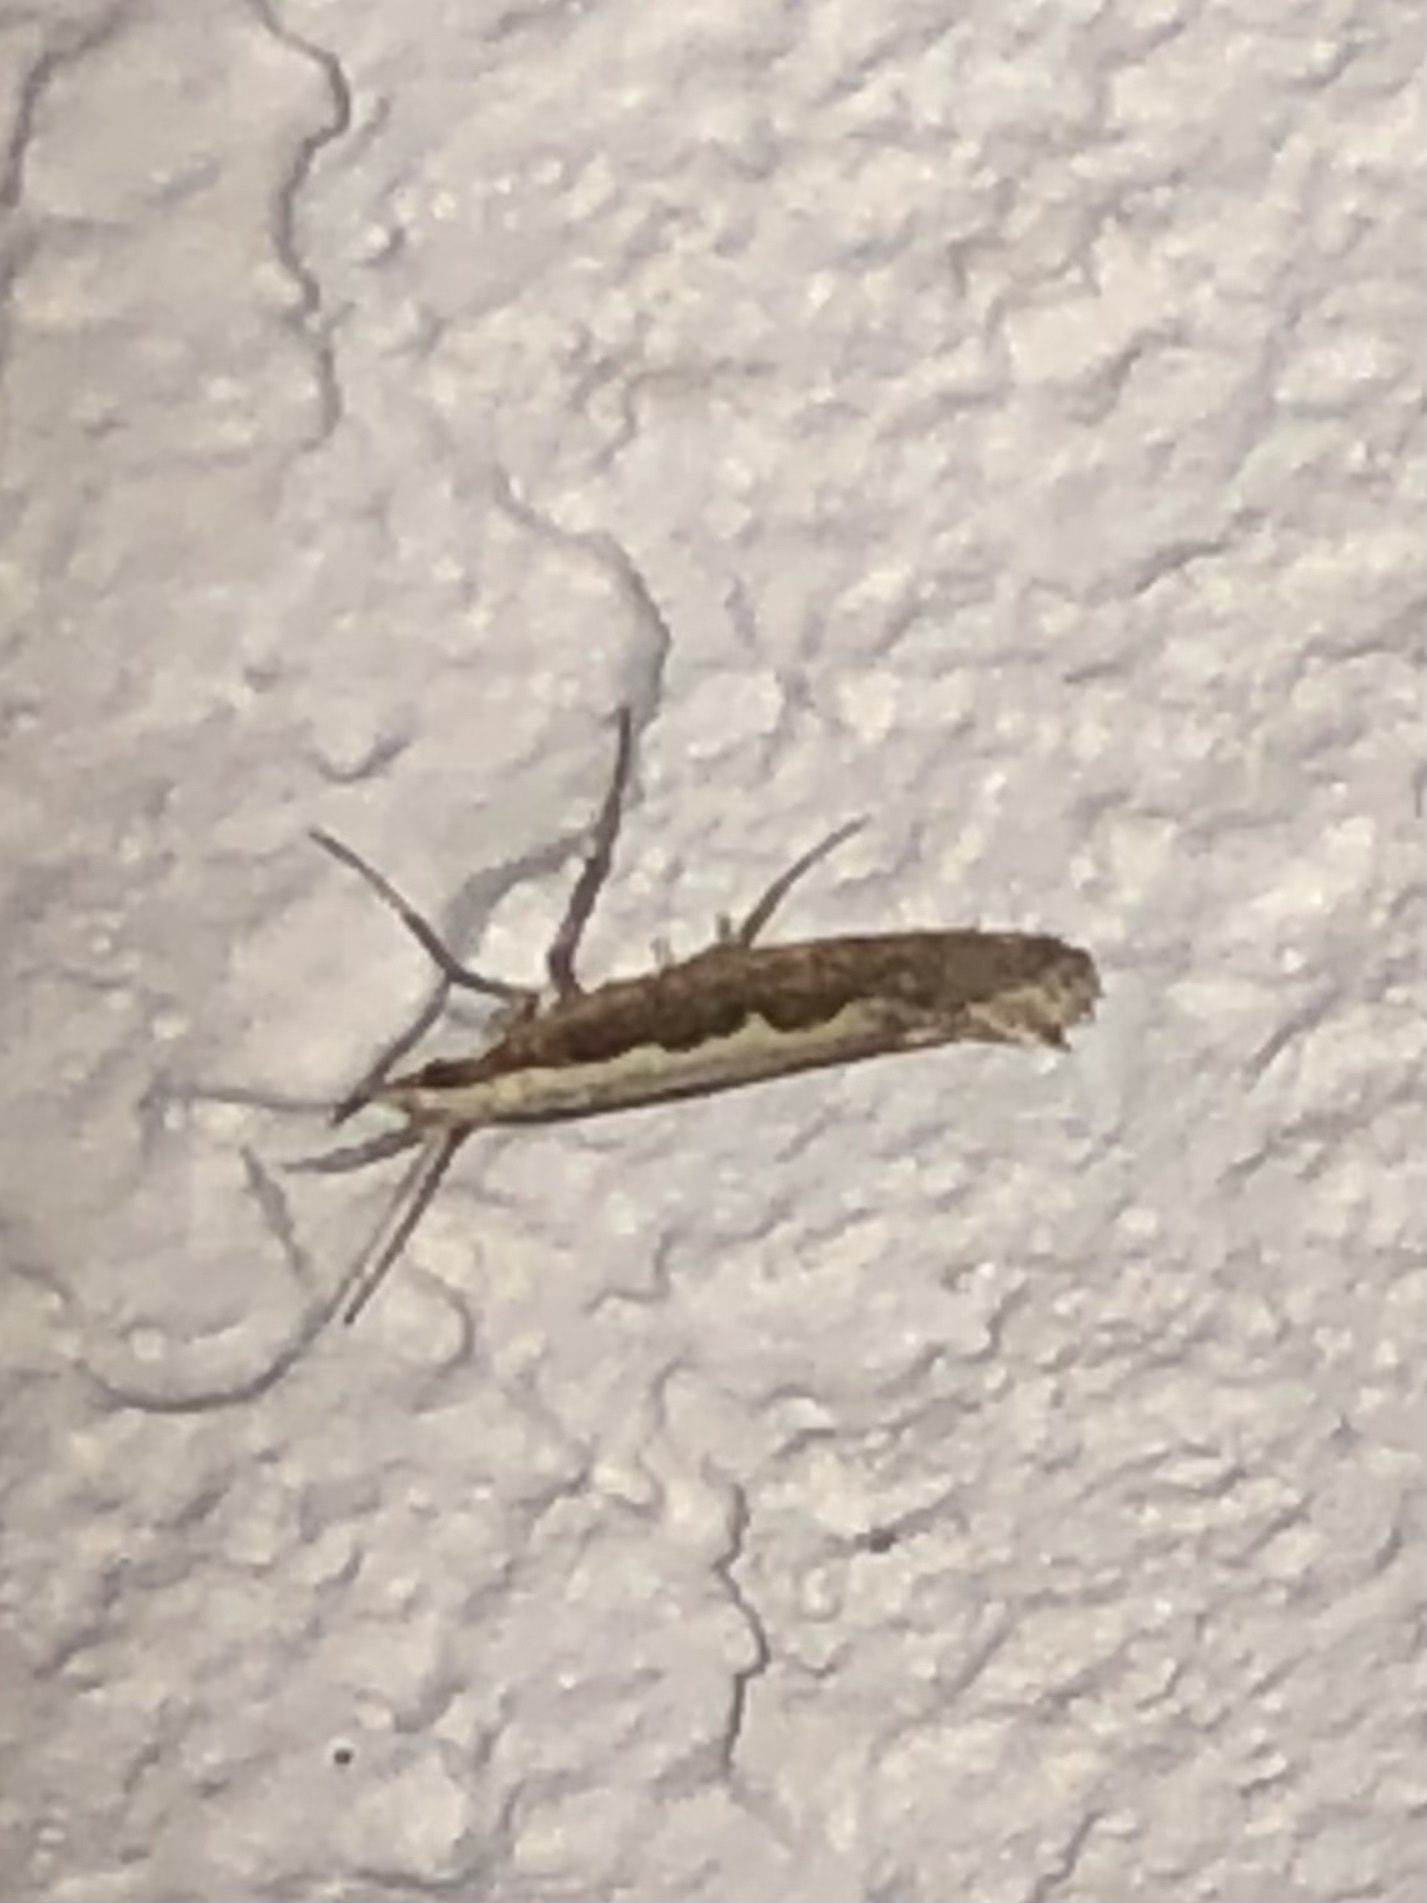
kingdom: Animalia
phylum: Arthropoda
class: Insecta
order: Lepidoptera
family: Plutellidae
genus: Plutella
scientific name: Plutella xylostella
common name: Diamond-back moth
